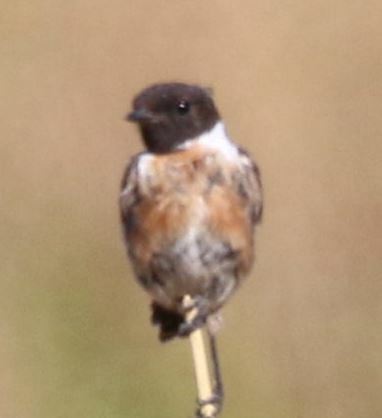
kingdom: Animalia
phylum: Chordata
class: Aves
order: Passeriformes
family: Muscicapidae
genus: Saxicola
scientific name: Saxicola rubicola
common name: European stonechat
